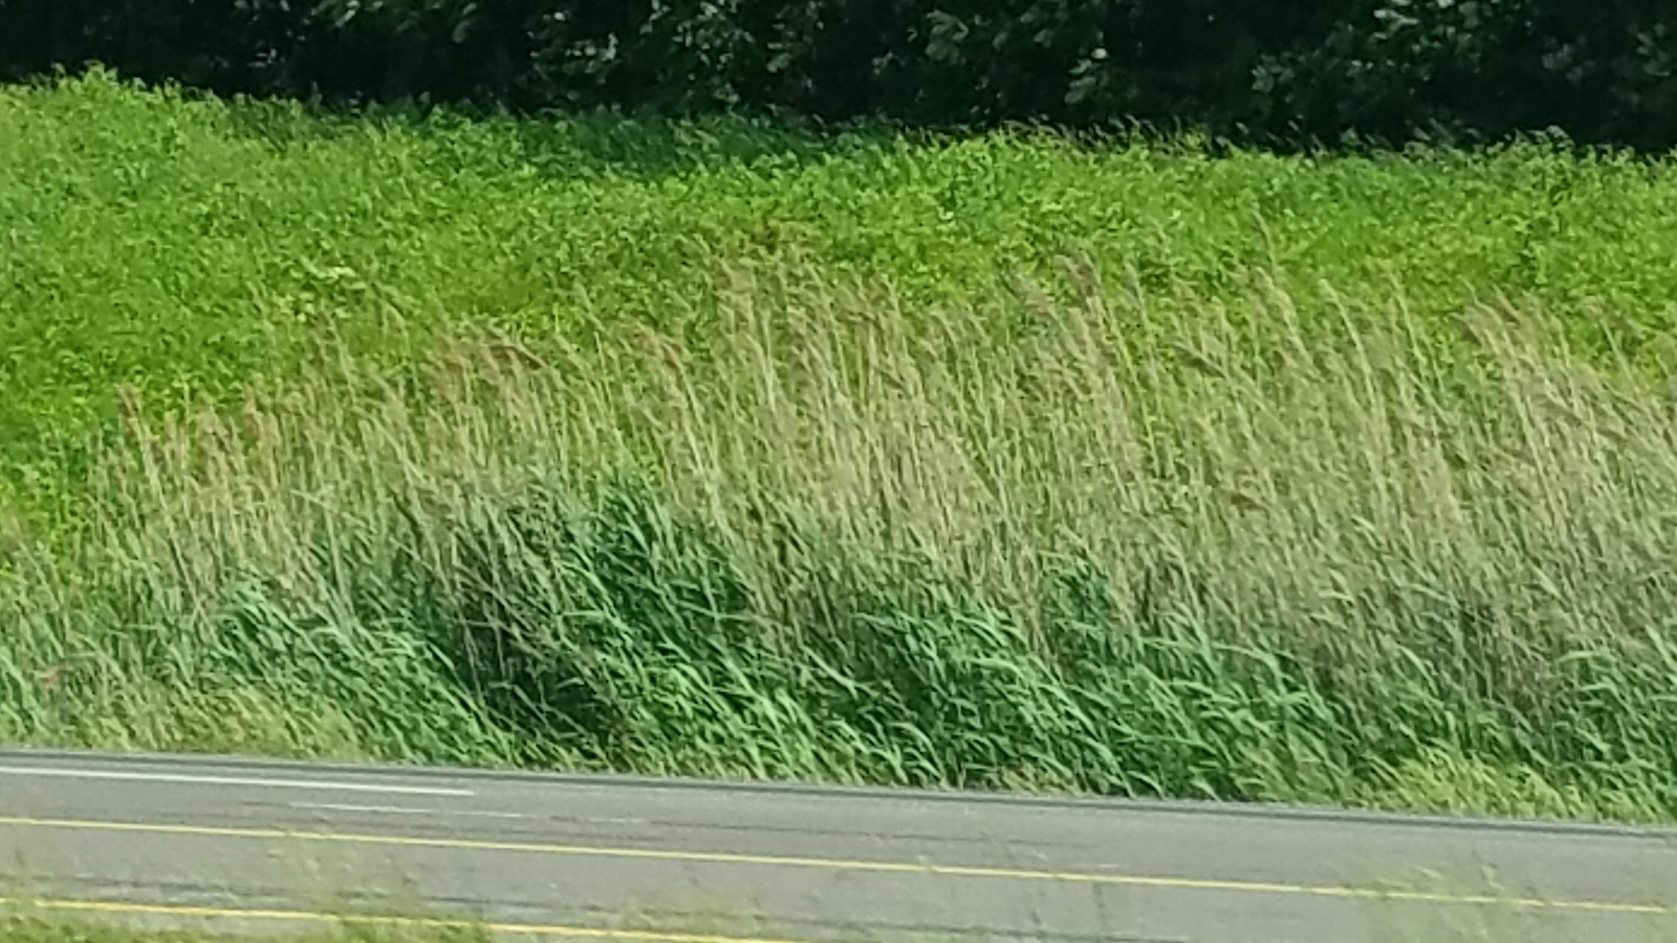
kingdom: Plantae
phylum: Tracheophyta
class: Liliopsida
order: Poales
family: Poaceae
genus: Phragmites
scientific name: Phragmites australis
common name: Common reed
